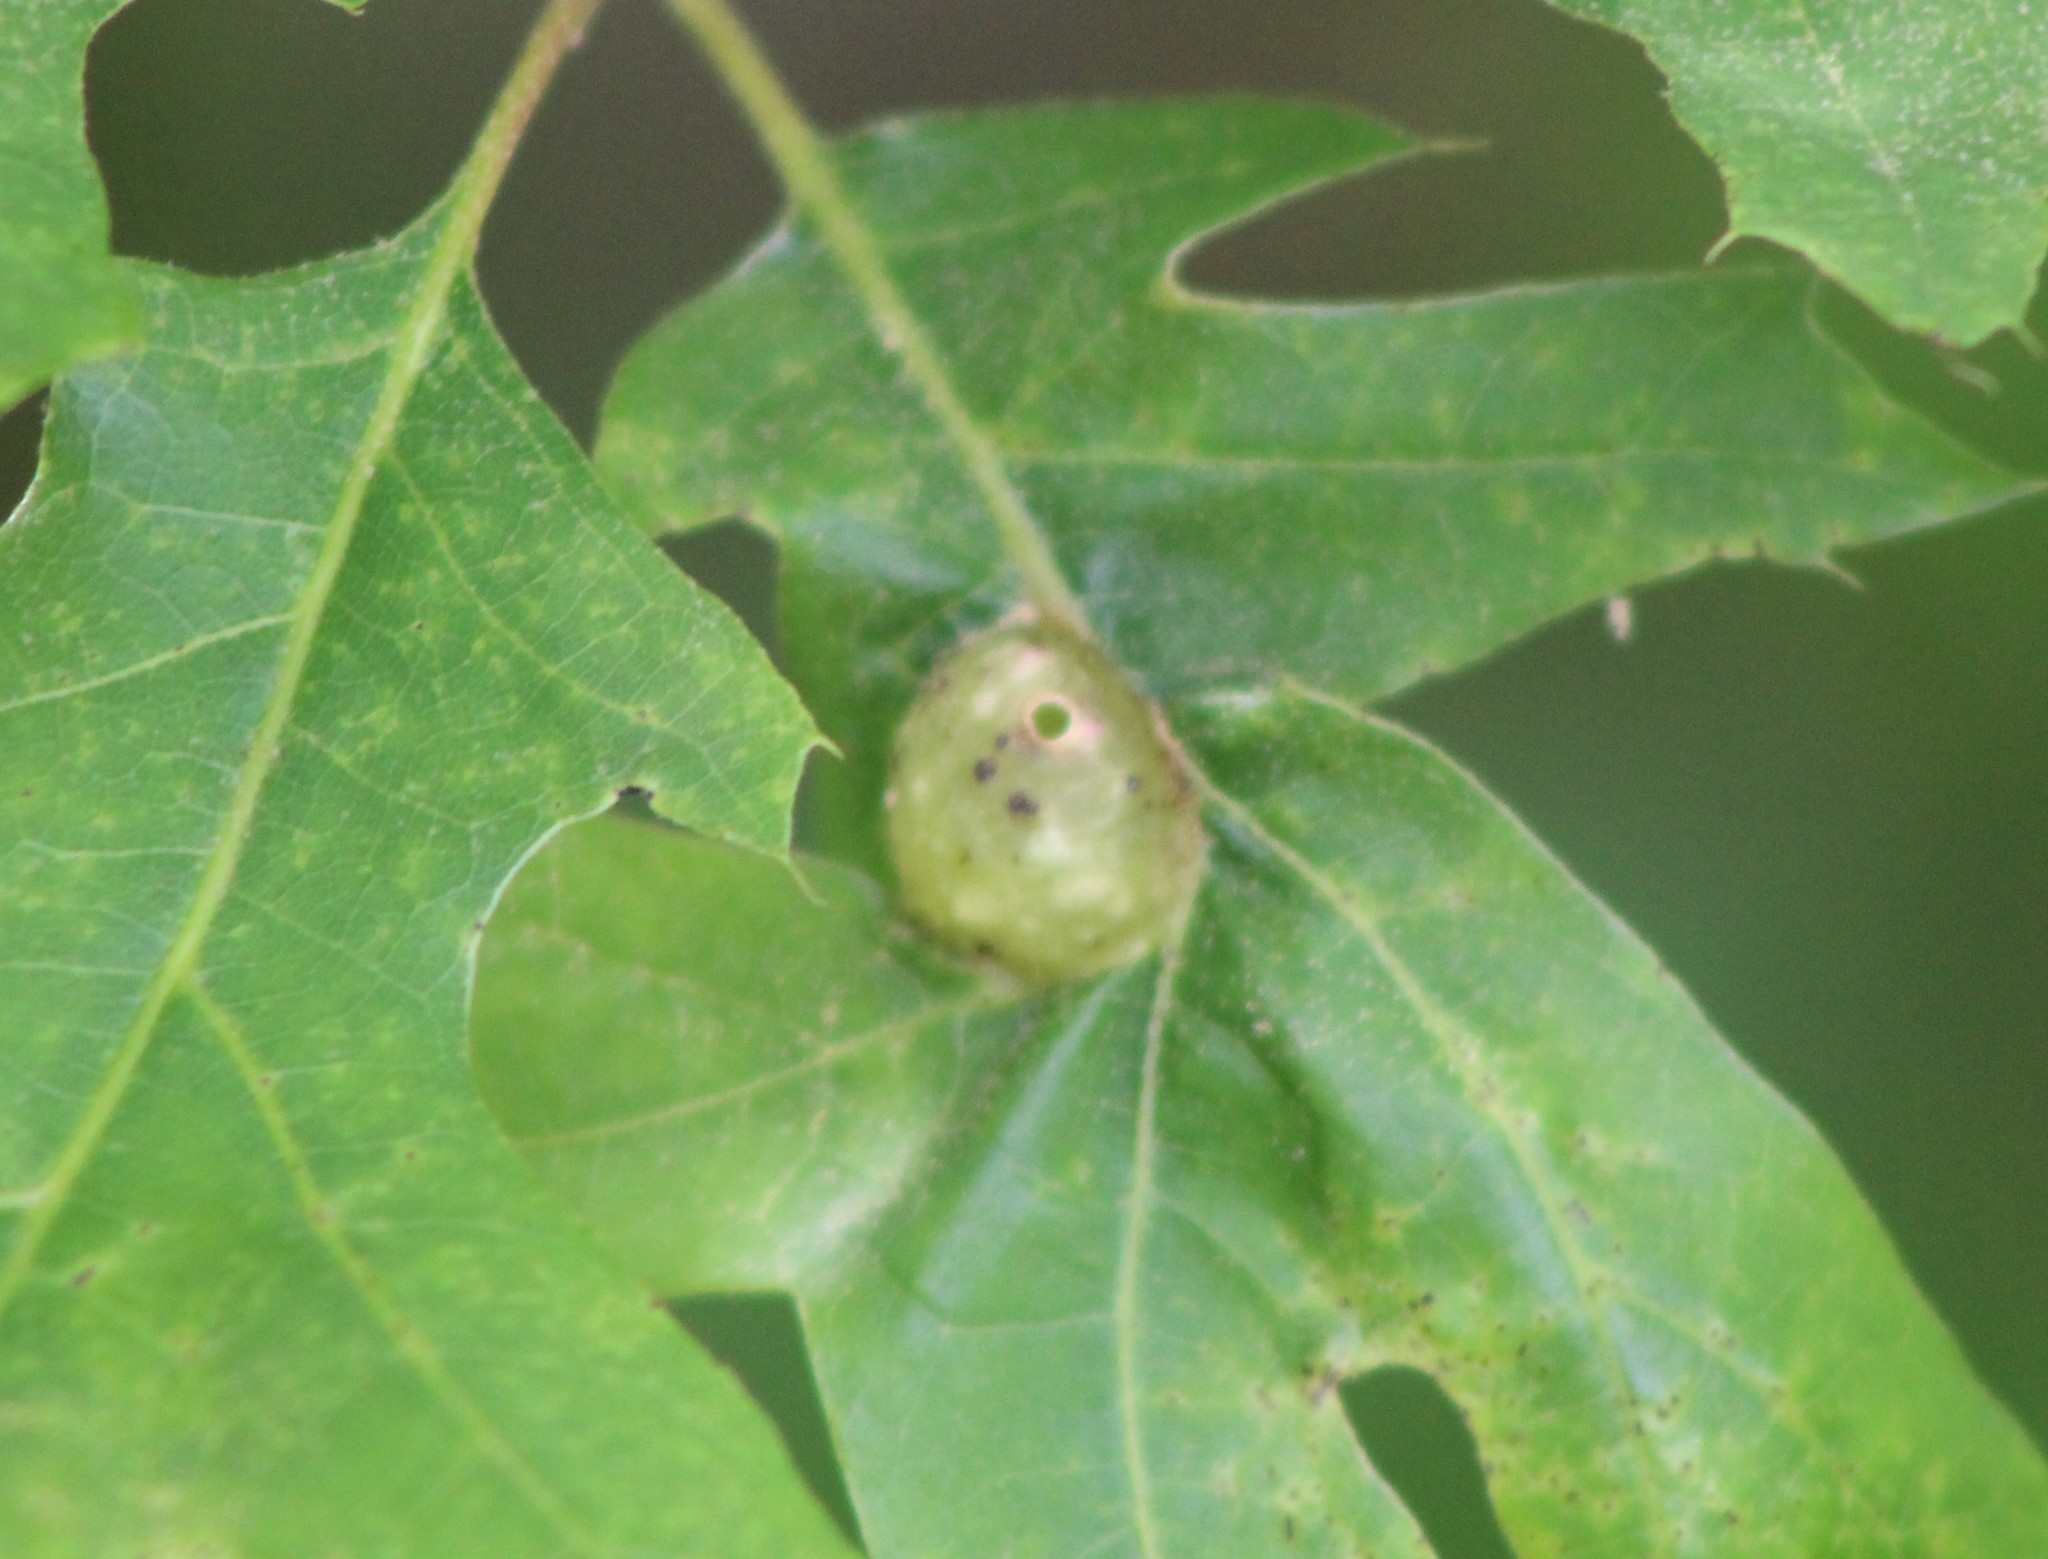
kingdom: Animalia
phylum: Arthropoda
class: Insecta
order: Hymenoptera
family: Cynipidae
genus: Dryocosmus
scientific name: Dryocosmus quercuspalustris
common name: Succulent oak gall wasp
